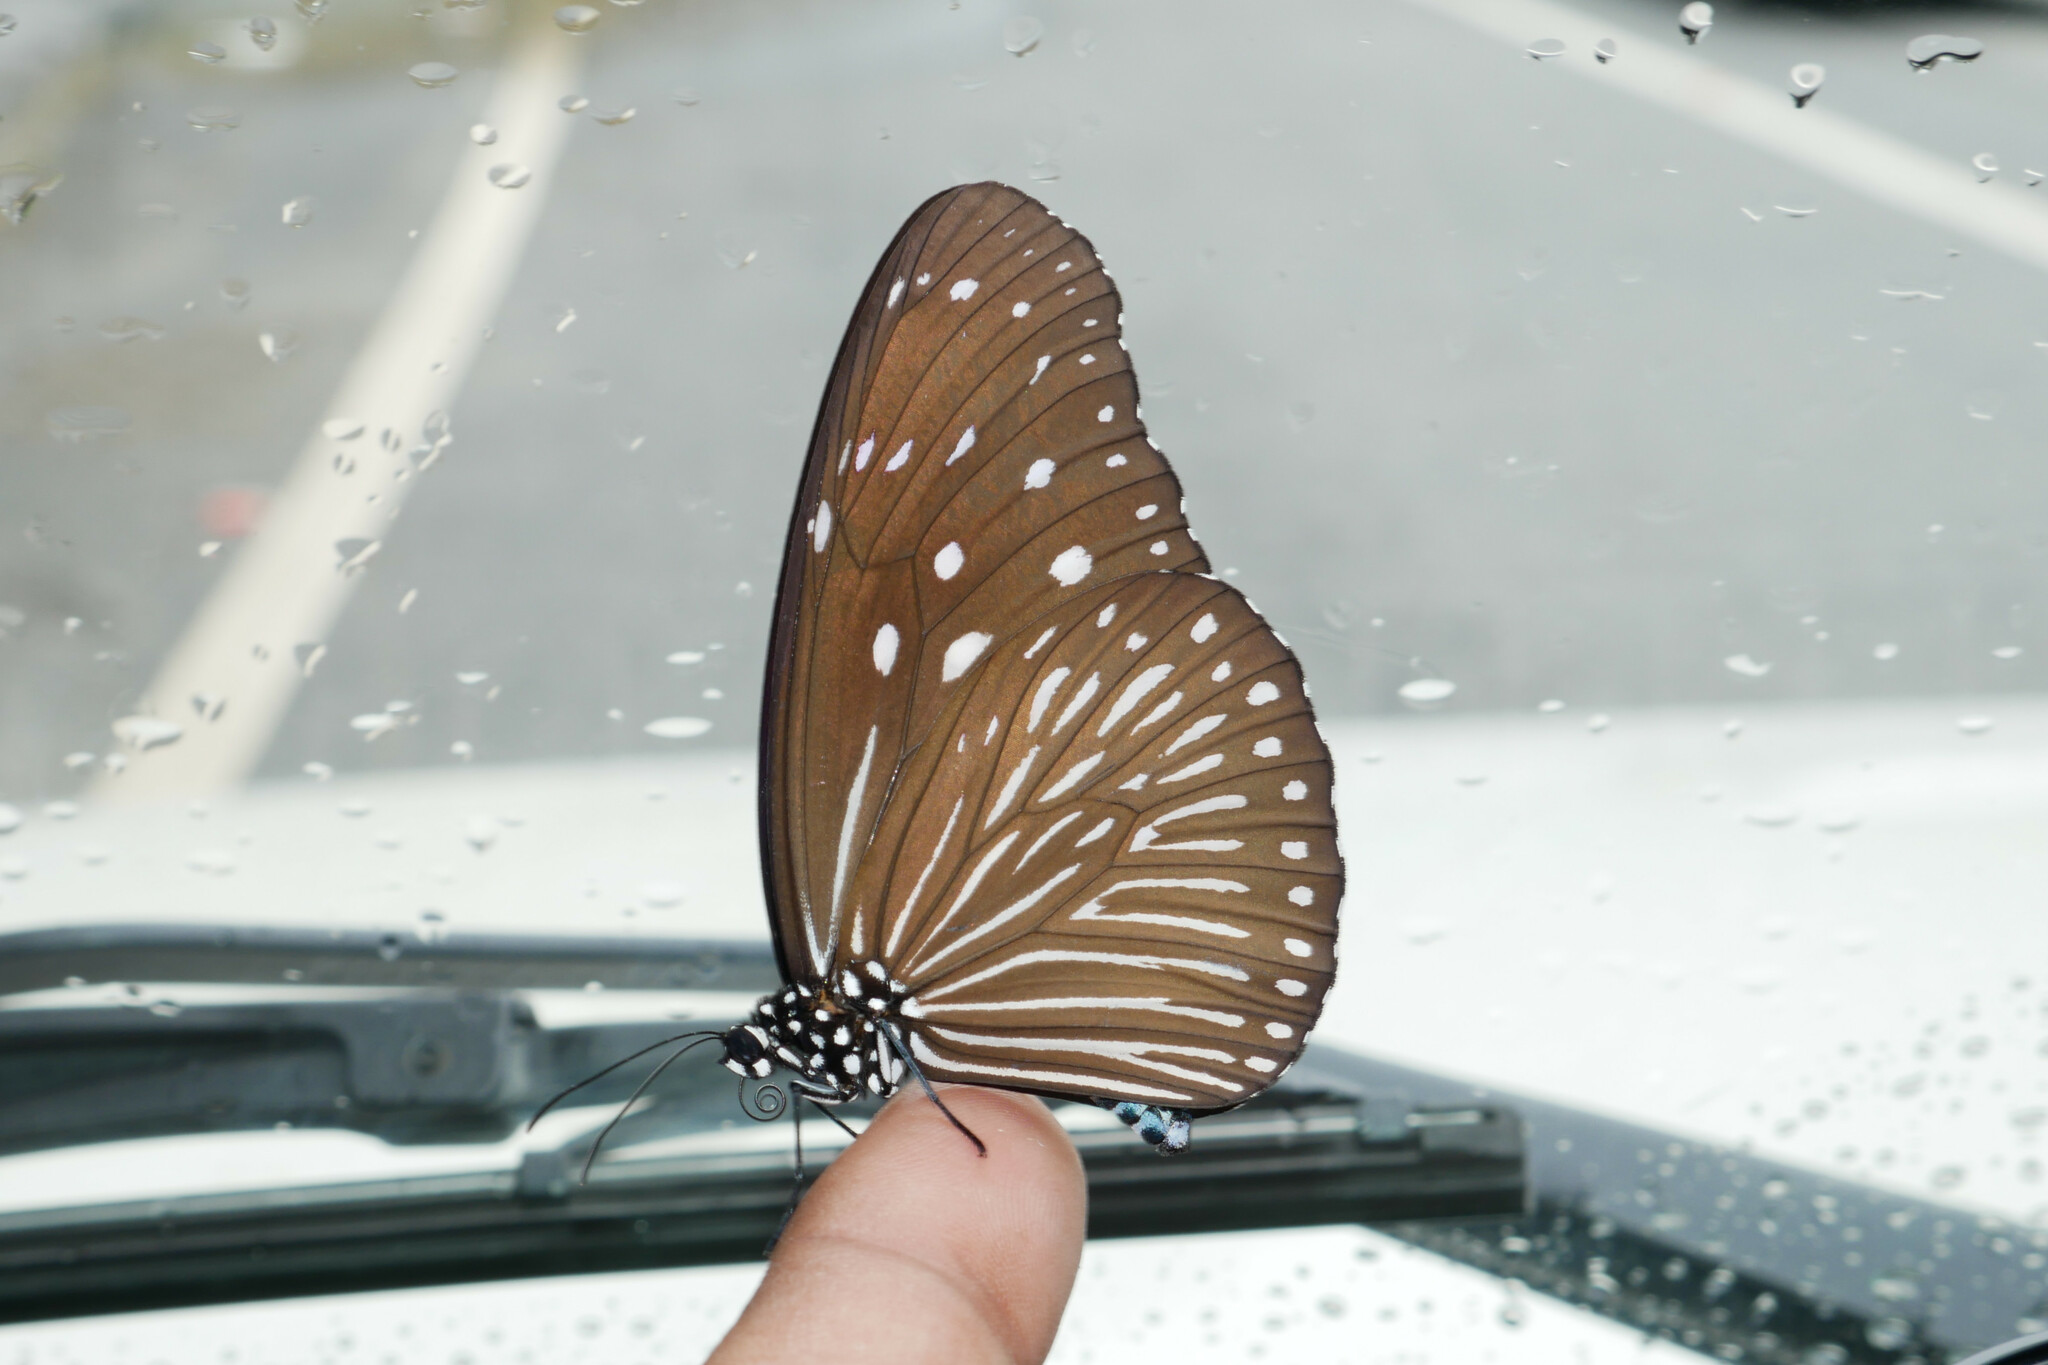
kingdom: Animalia
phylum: Arthropoda
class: Insecta
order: Lepidoptera
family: Nymphalidae
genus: Euploea
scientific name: Euploea mulciber
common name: Striped blue crow butterfly
